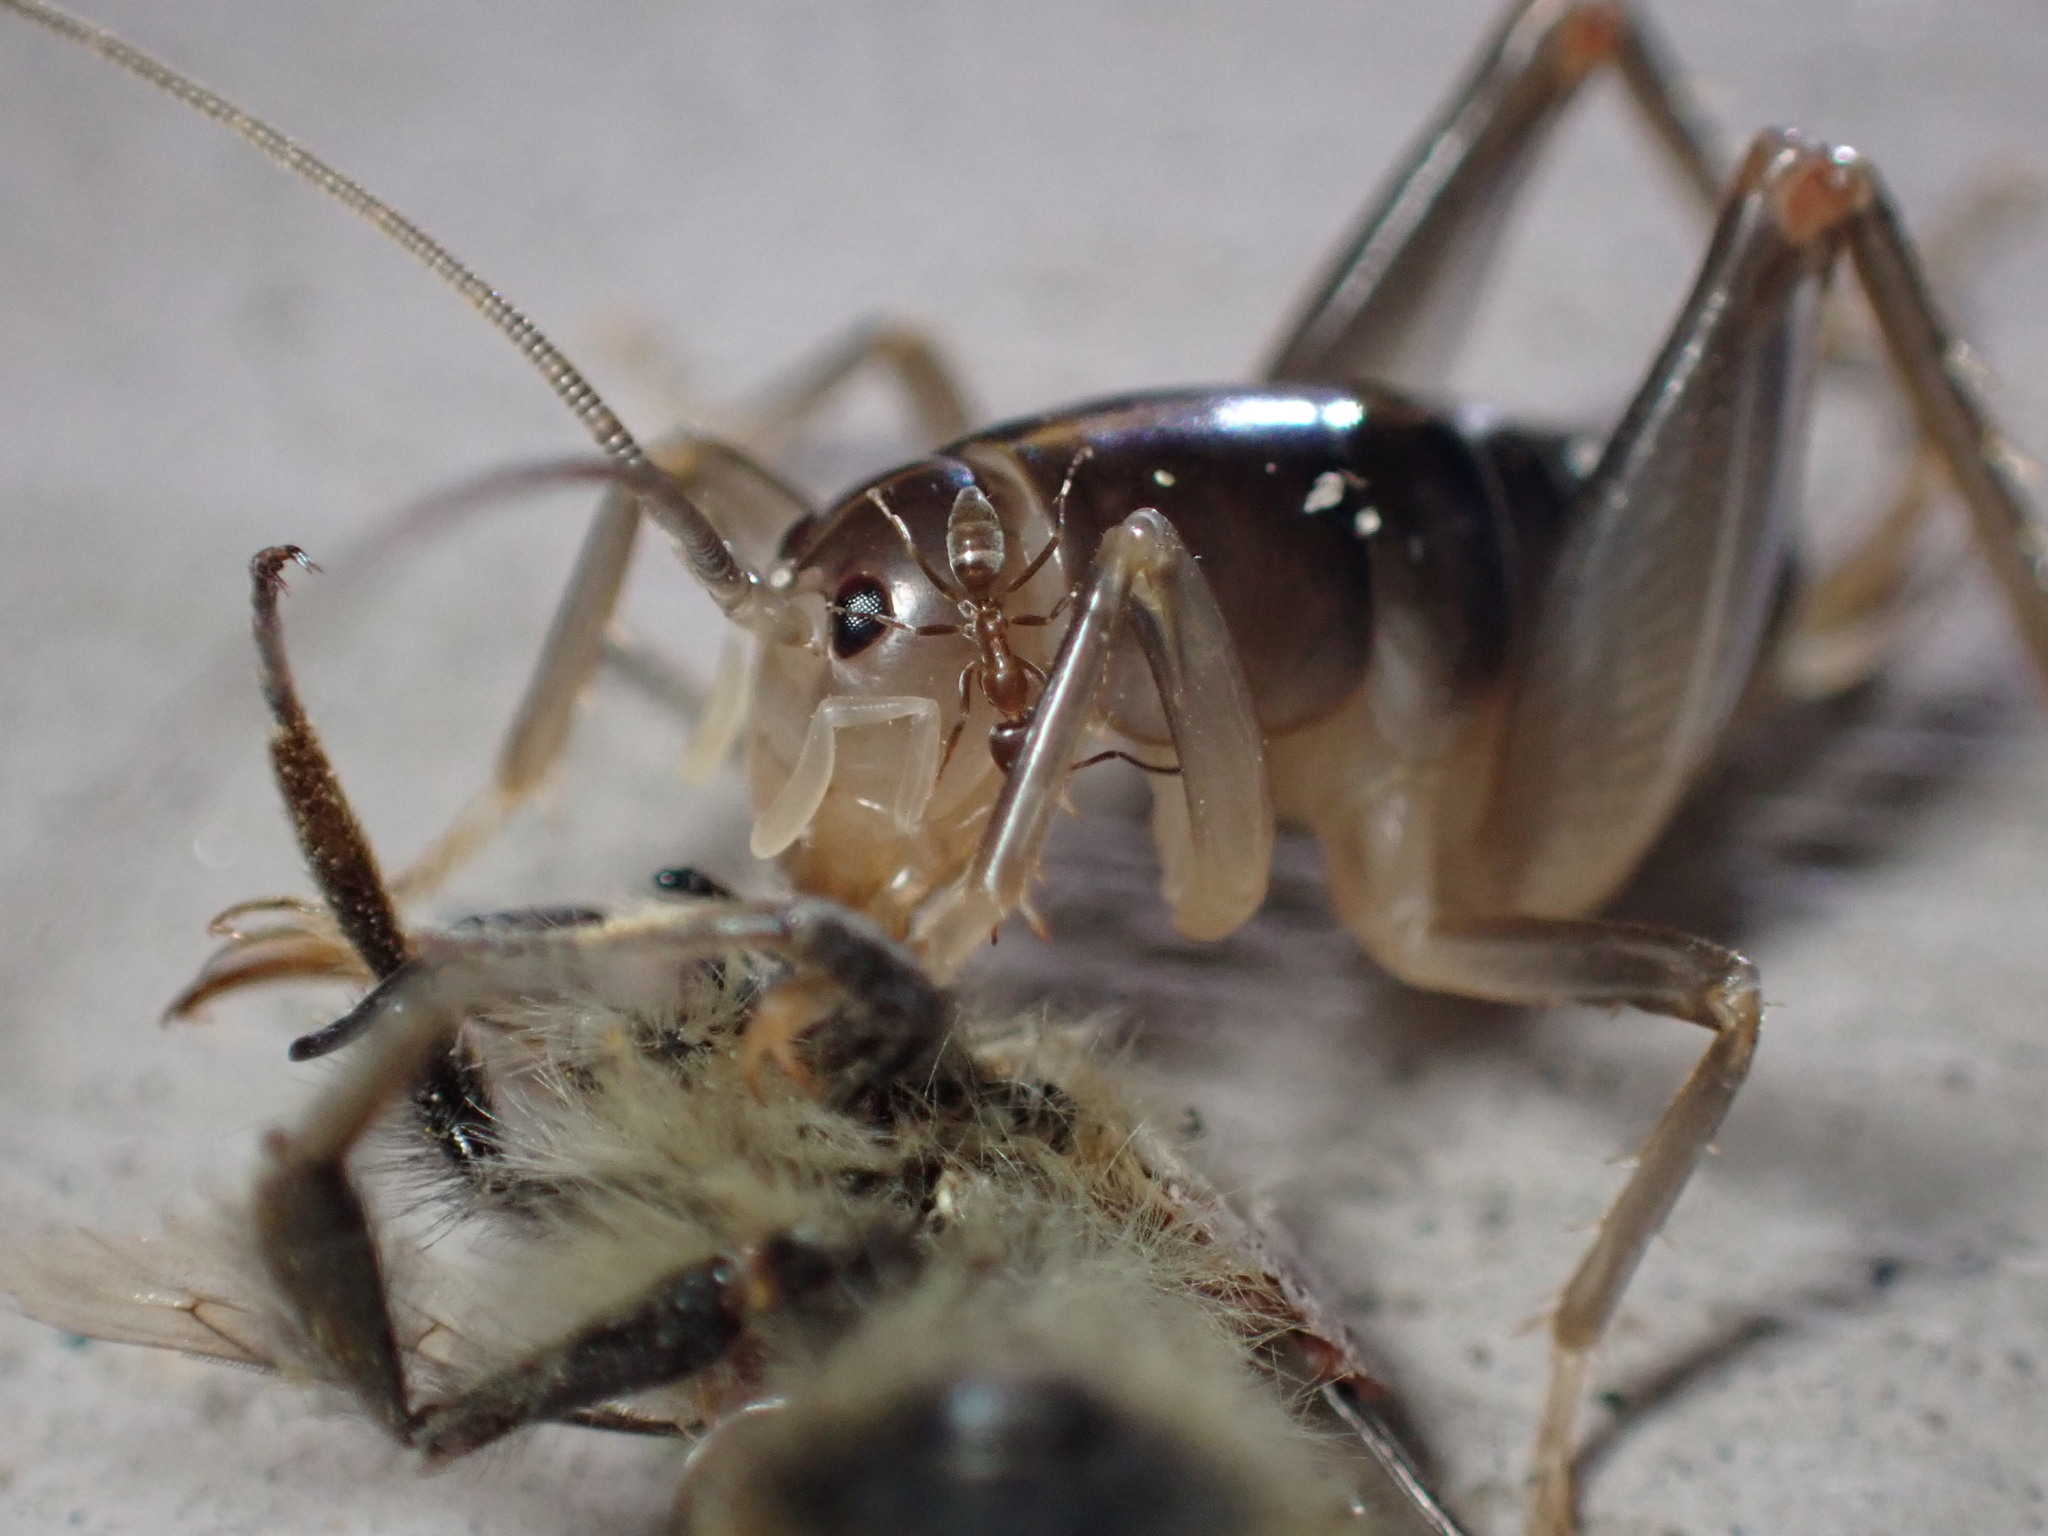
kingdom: Animalia
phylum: Arthropoda
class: Insecta
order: Hymenoptera
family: Formicidae
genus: Linepithema
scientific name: Linepithema humile
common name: Argentine ant
